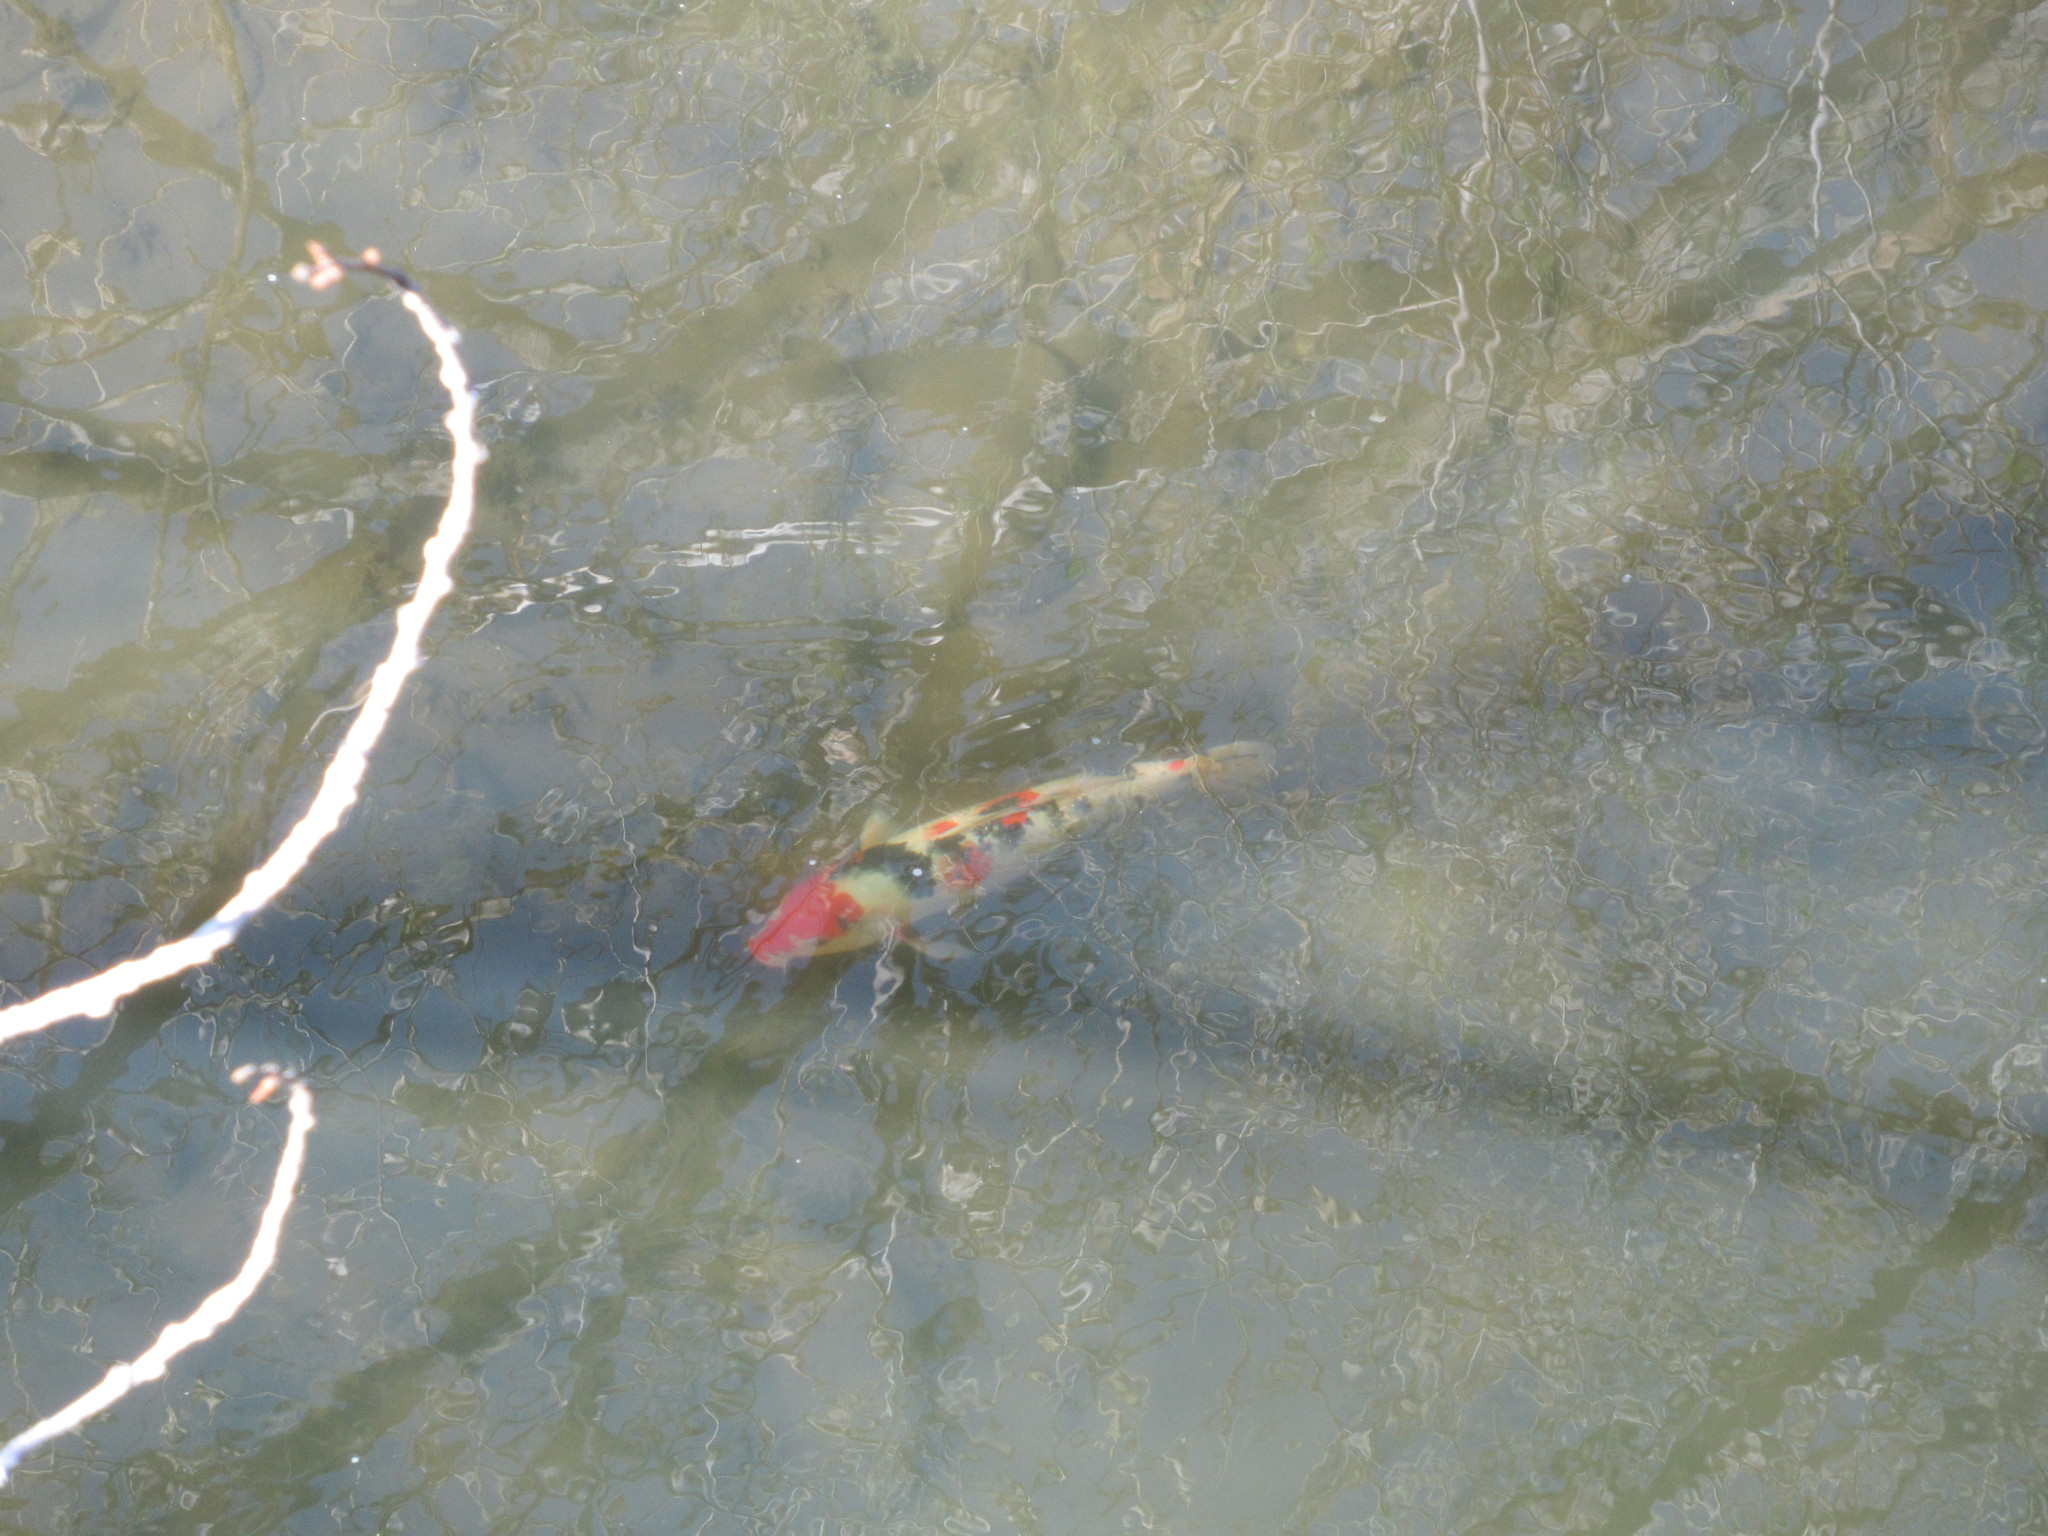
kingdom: Animalia
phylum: Chordata
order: Cypriniformes
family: Cyprinidae
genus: Cyprinus
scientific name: Cyprinus rubrofuscus
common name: Koi
